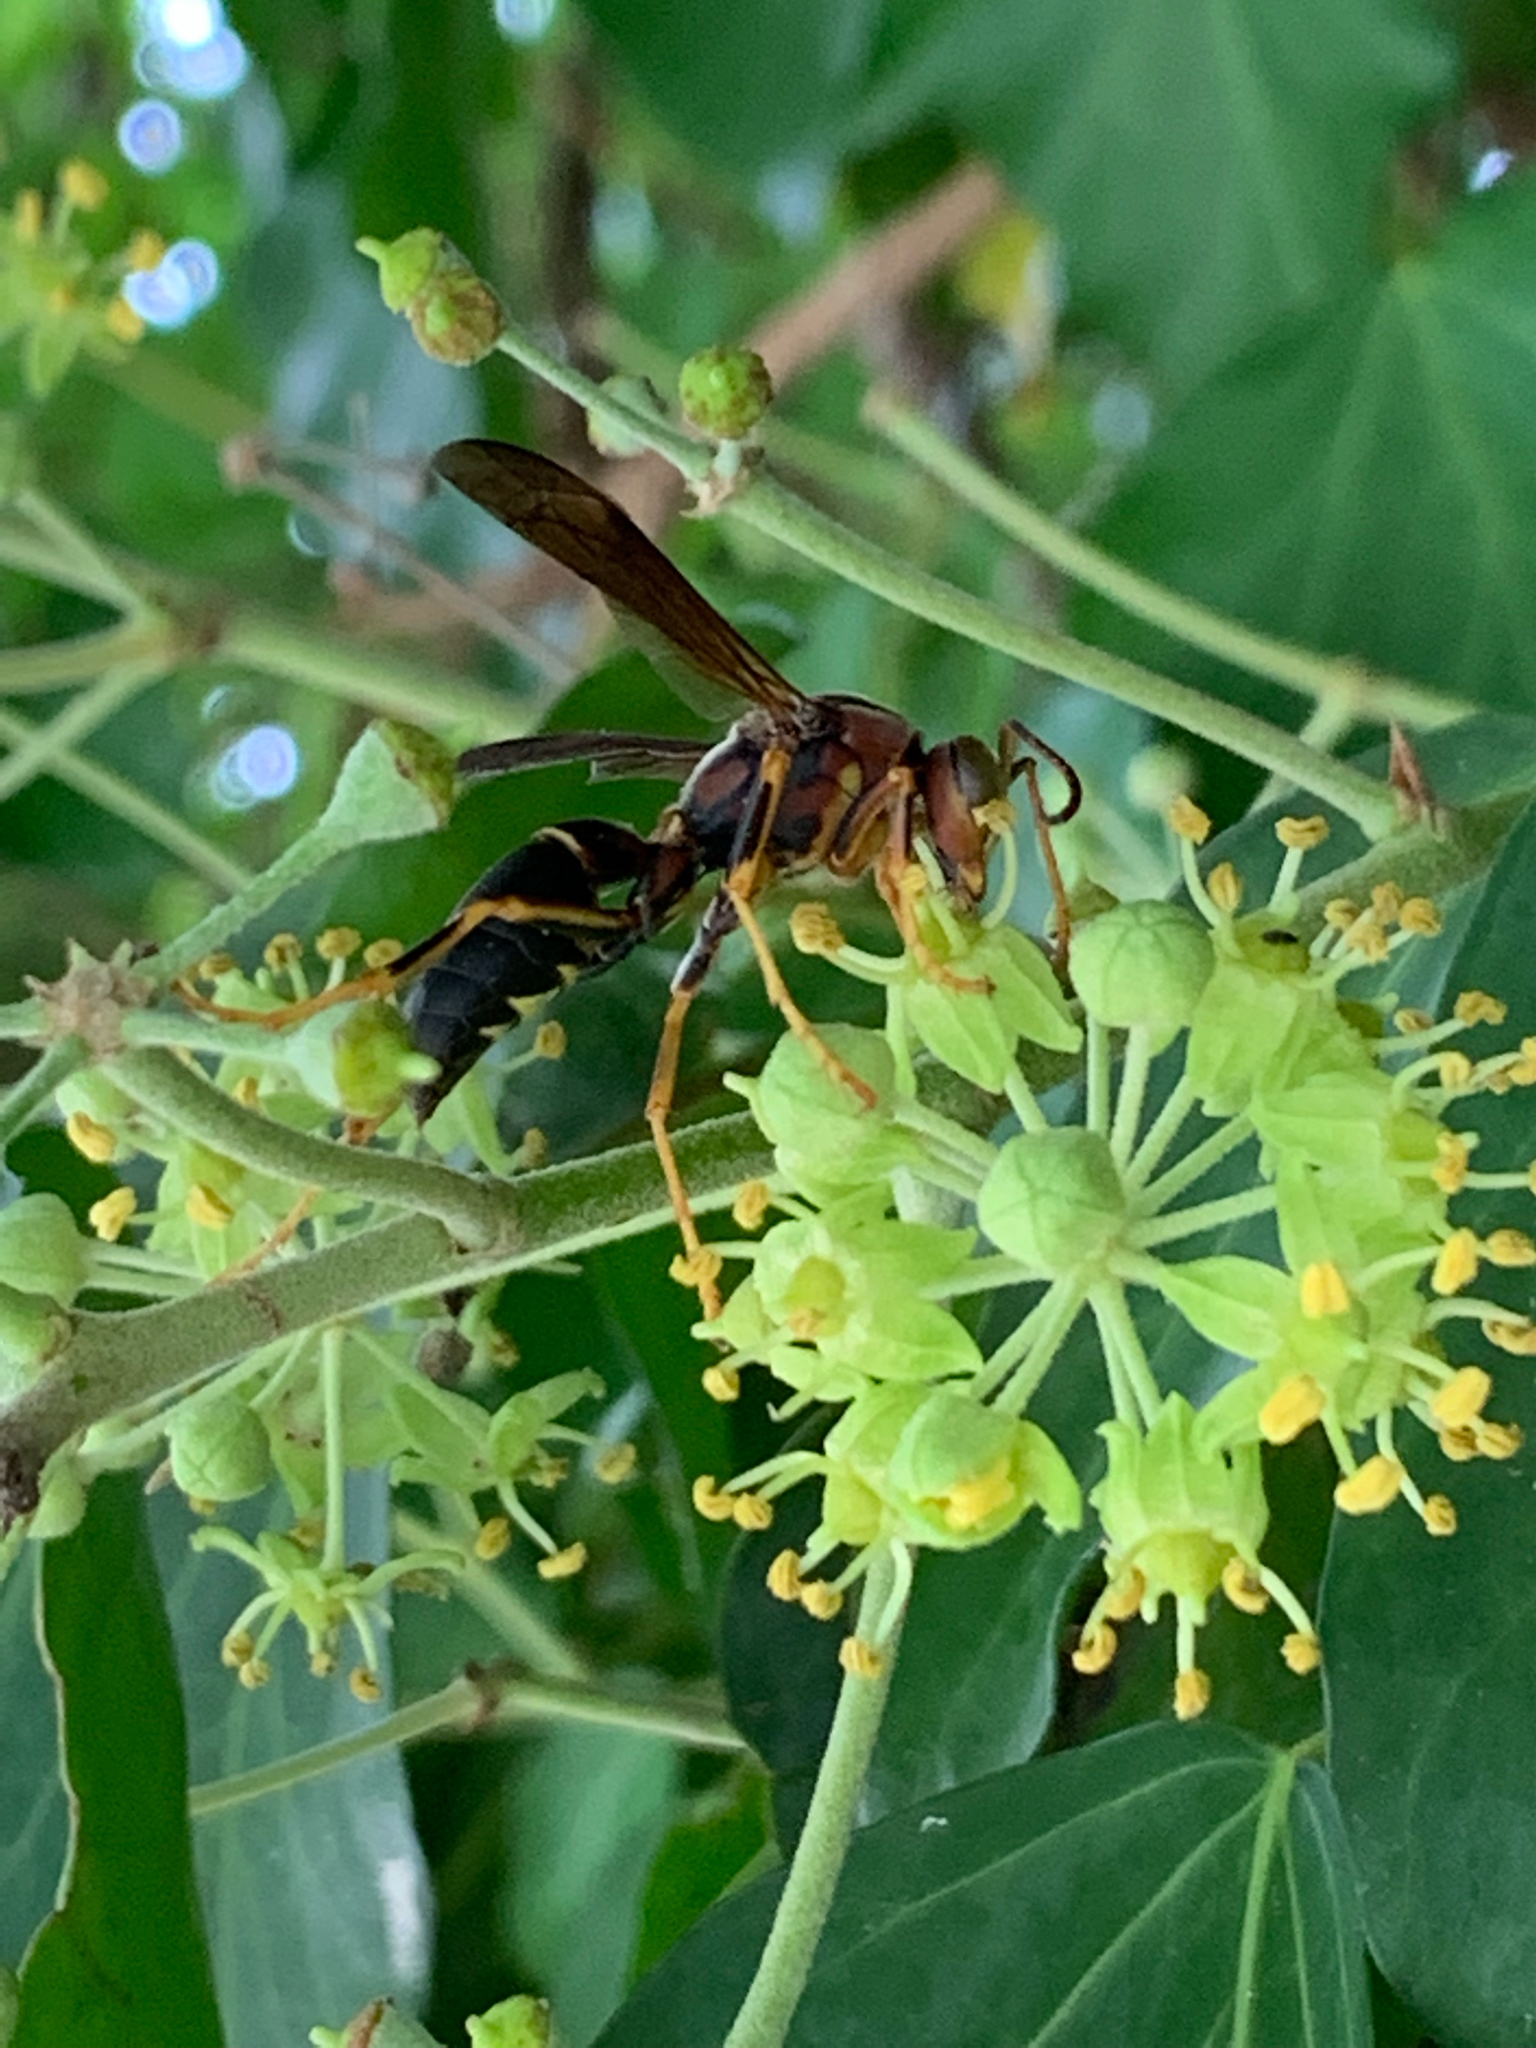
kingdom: Animalia
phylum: Arthropoda
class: Insecta
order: Hymenoptera
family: Eumenidae
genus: Polistes
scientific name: Polistes fuscatus
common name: Dark paper wasp
